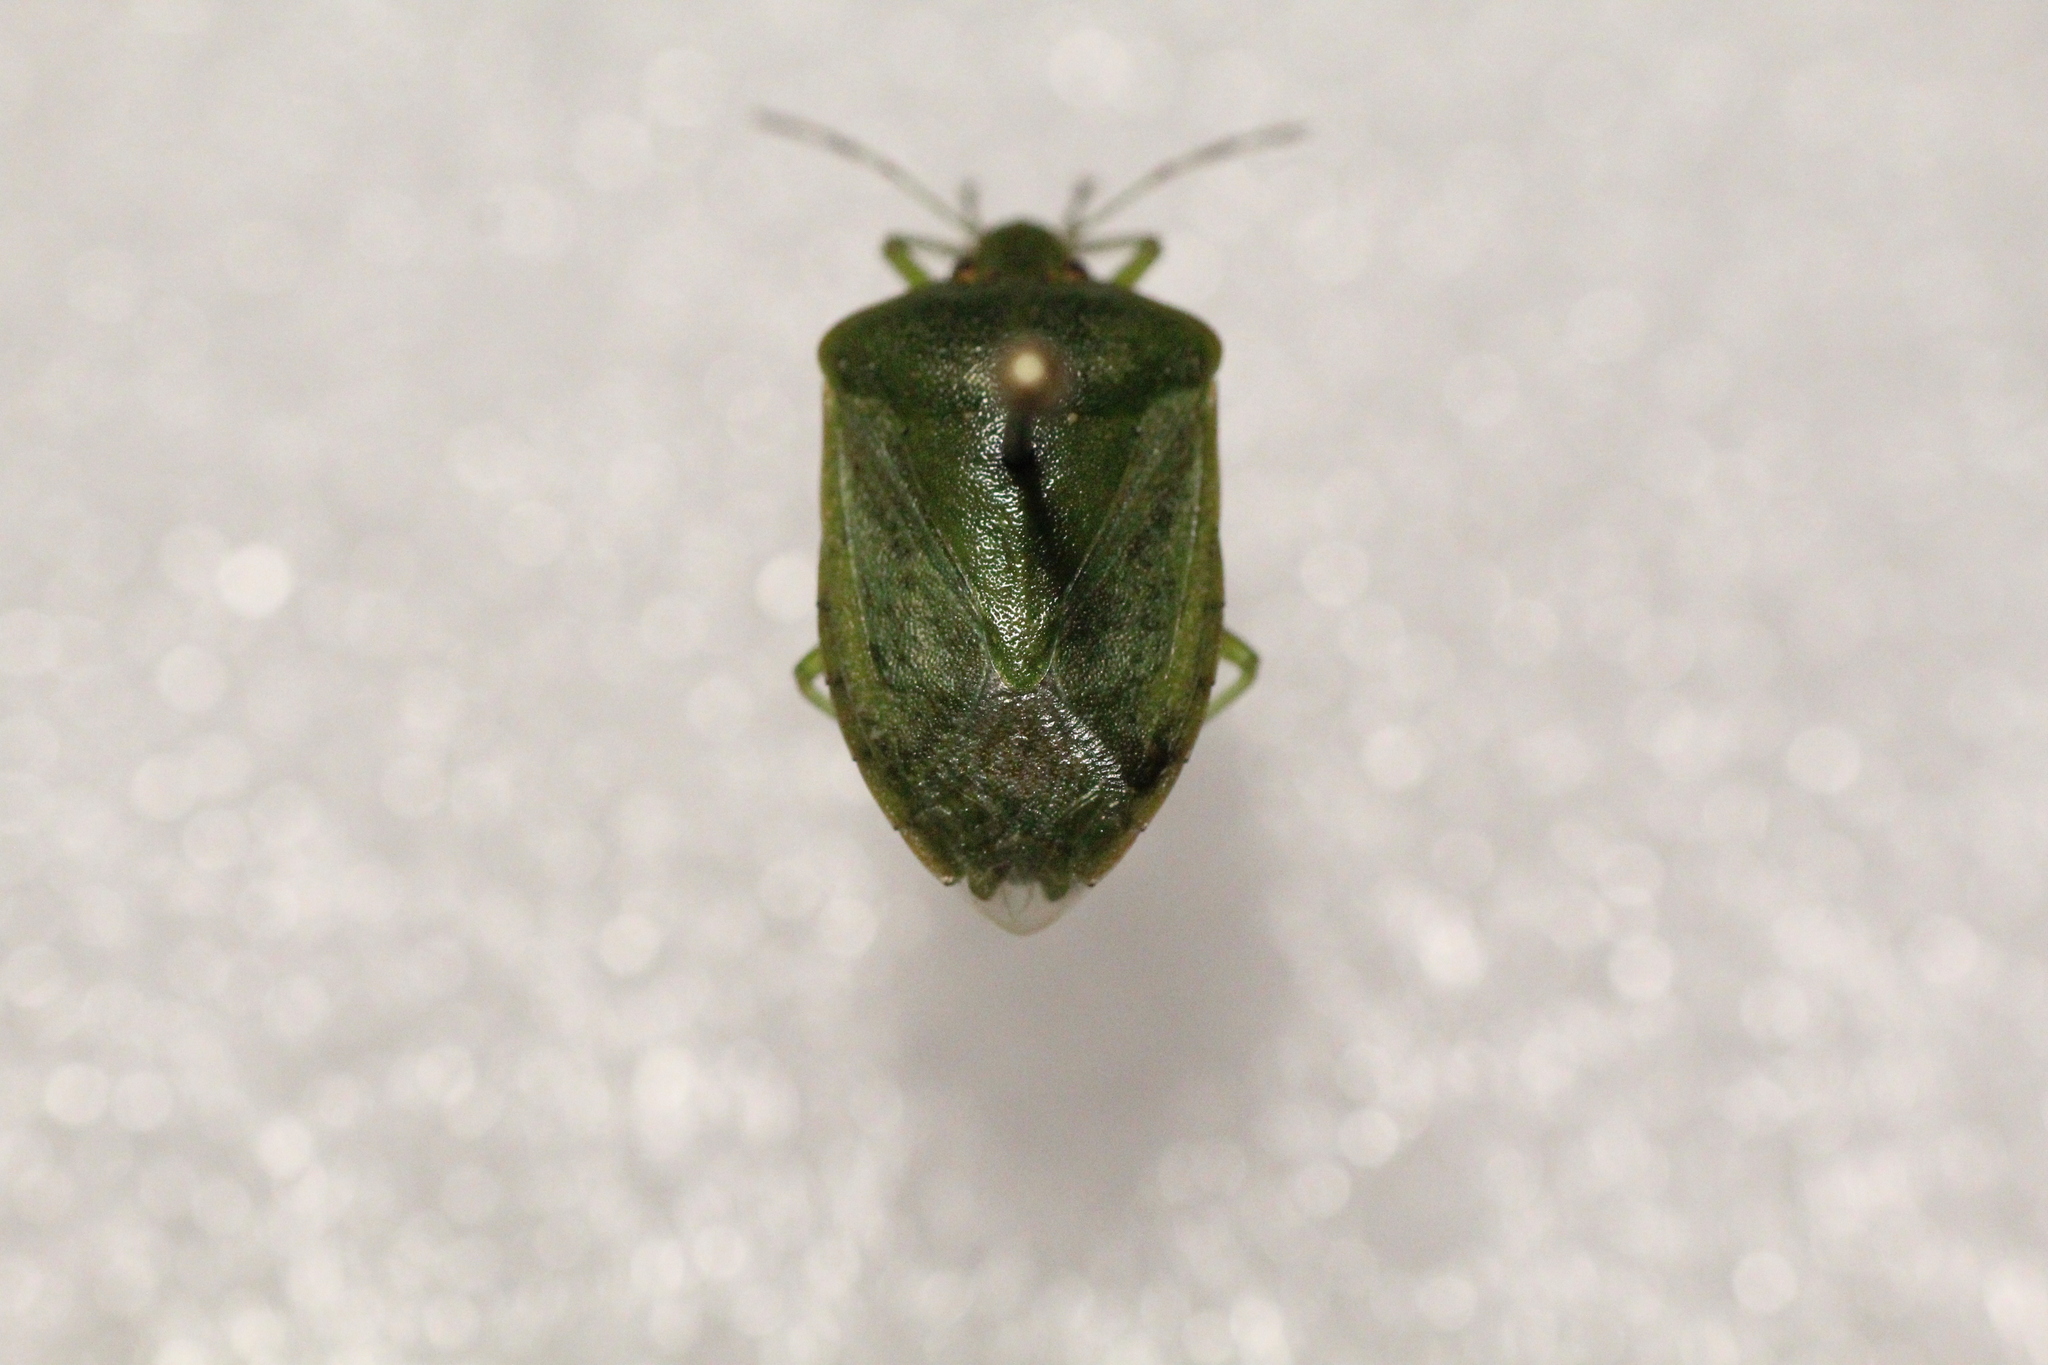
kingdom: Animalia
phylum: Arthropoda
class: Insecta
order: Hemiptera
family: Pentatomidae
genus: Nezara
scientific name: Nezara viridula
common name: Southern green stink bug
